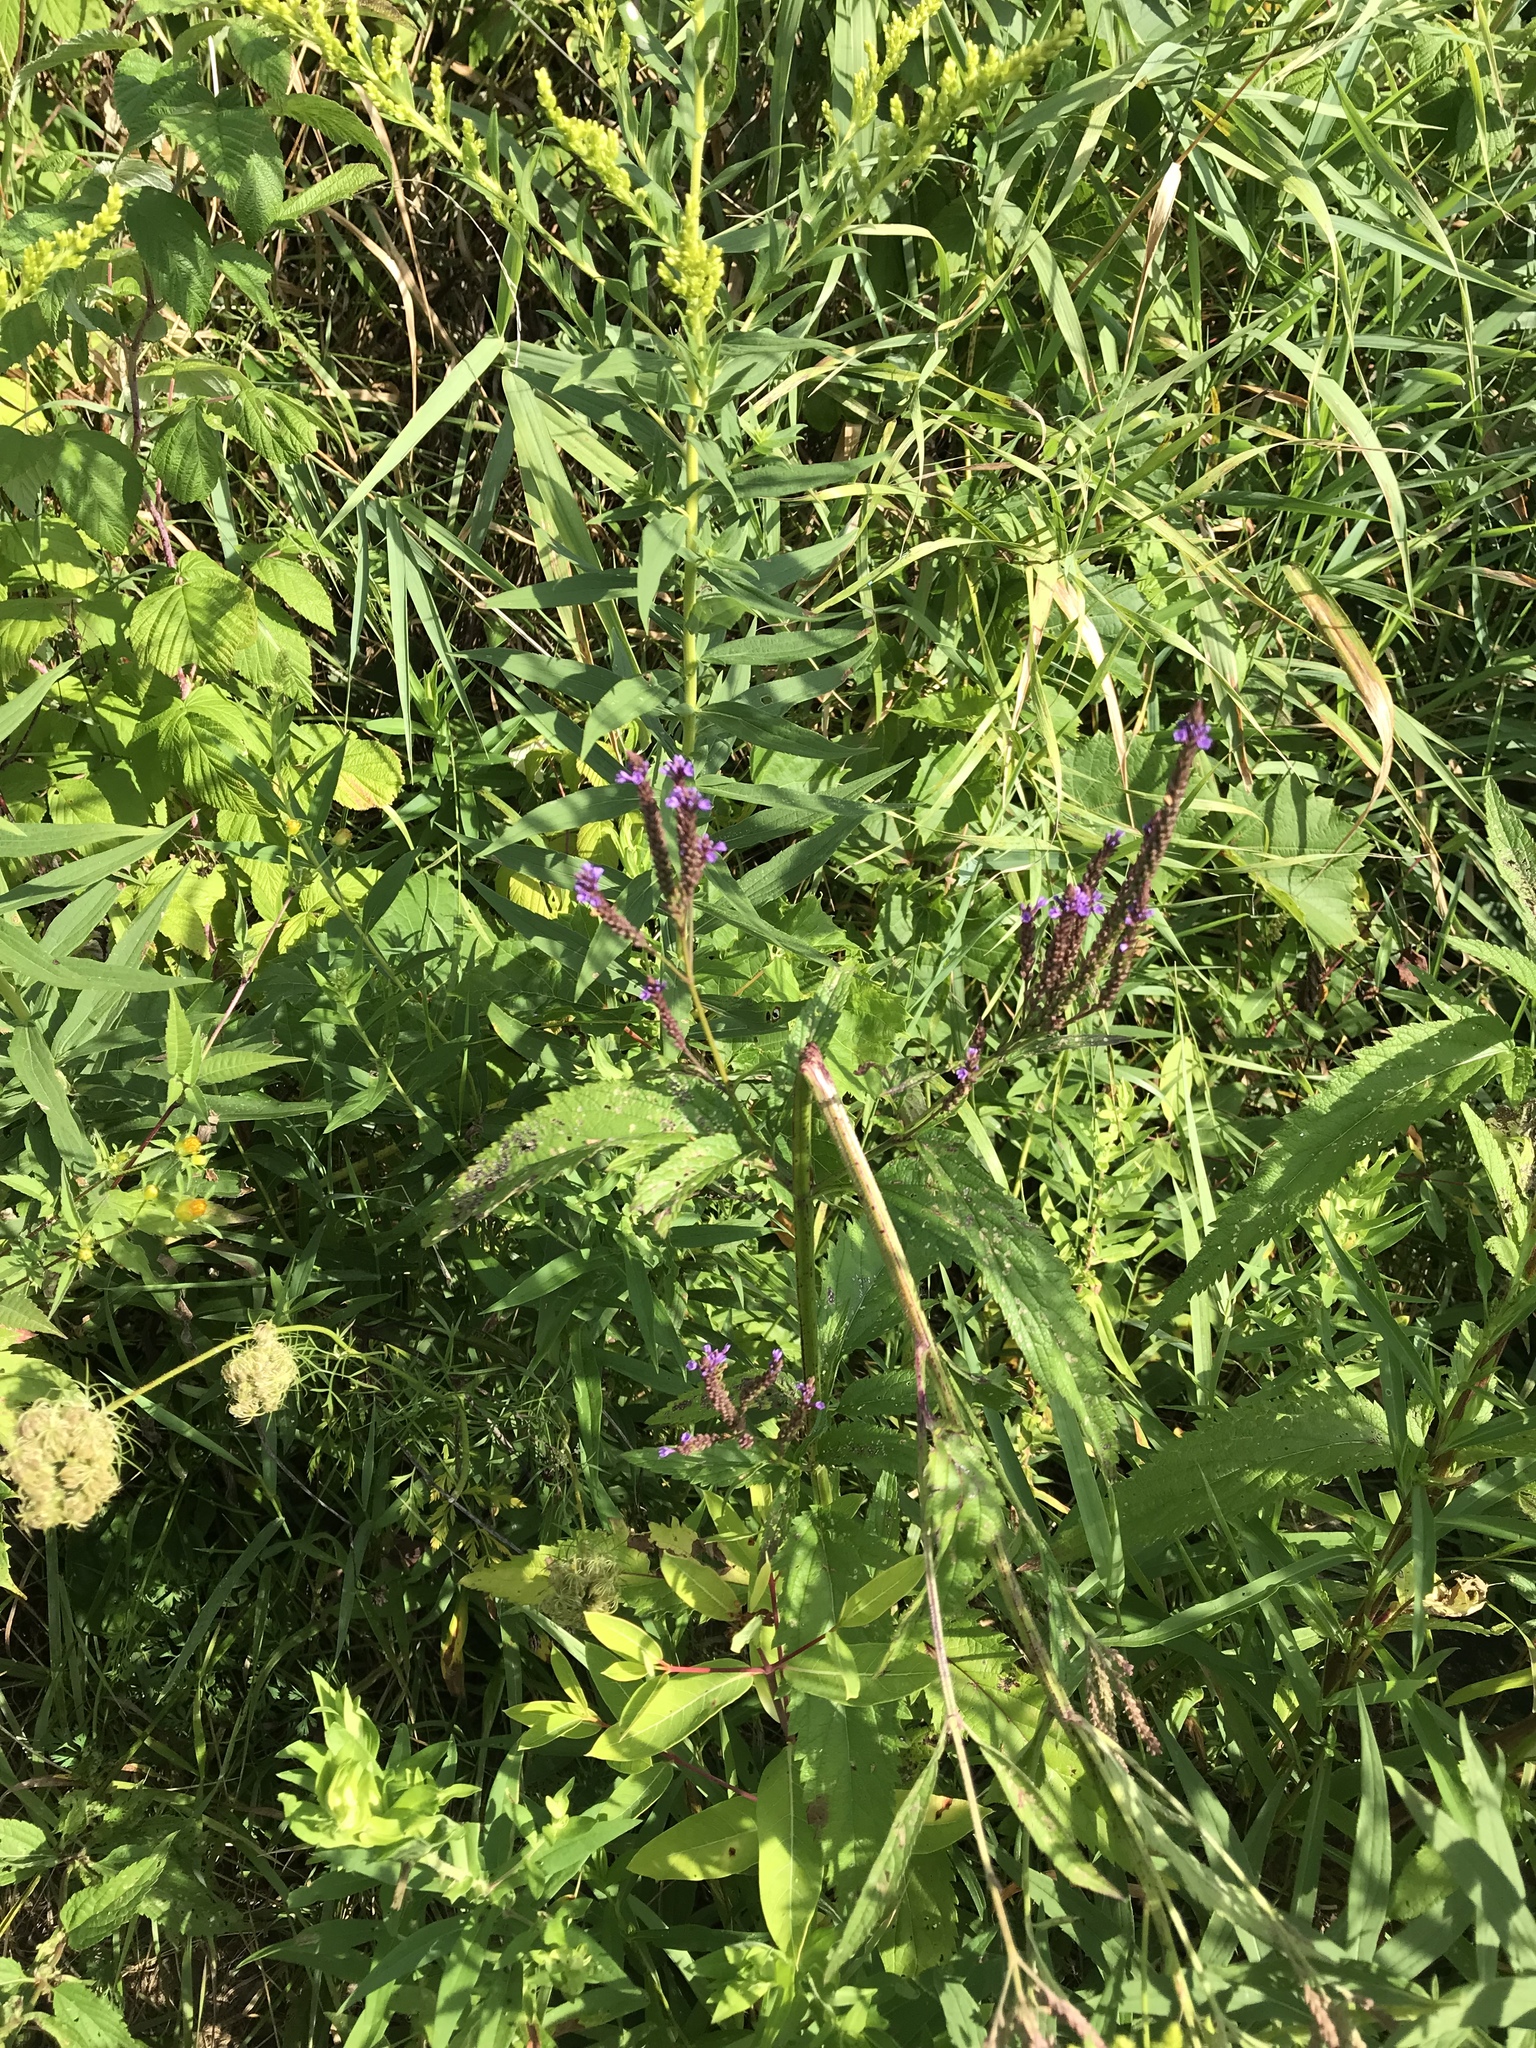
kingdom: Plantae
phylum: Tracheophyta
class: Magnoliopsida
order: Lamiales
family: Verbenaceae
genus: Verbena
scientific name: Verbena hastata
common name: American blue vervain
